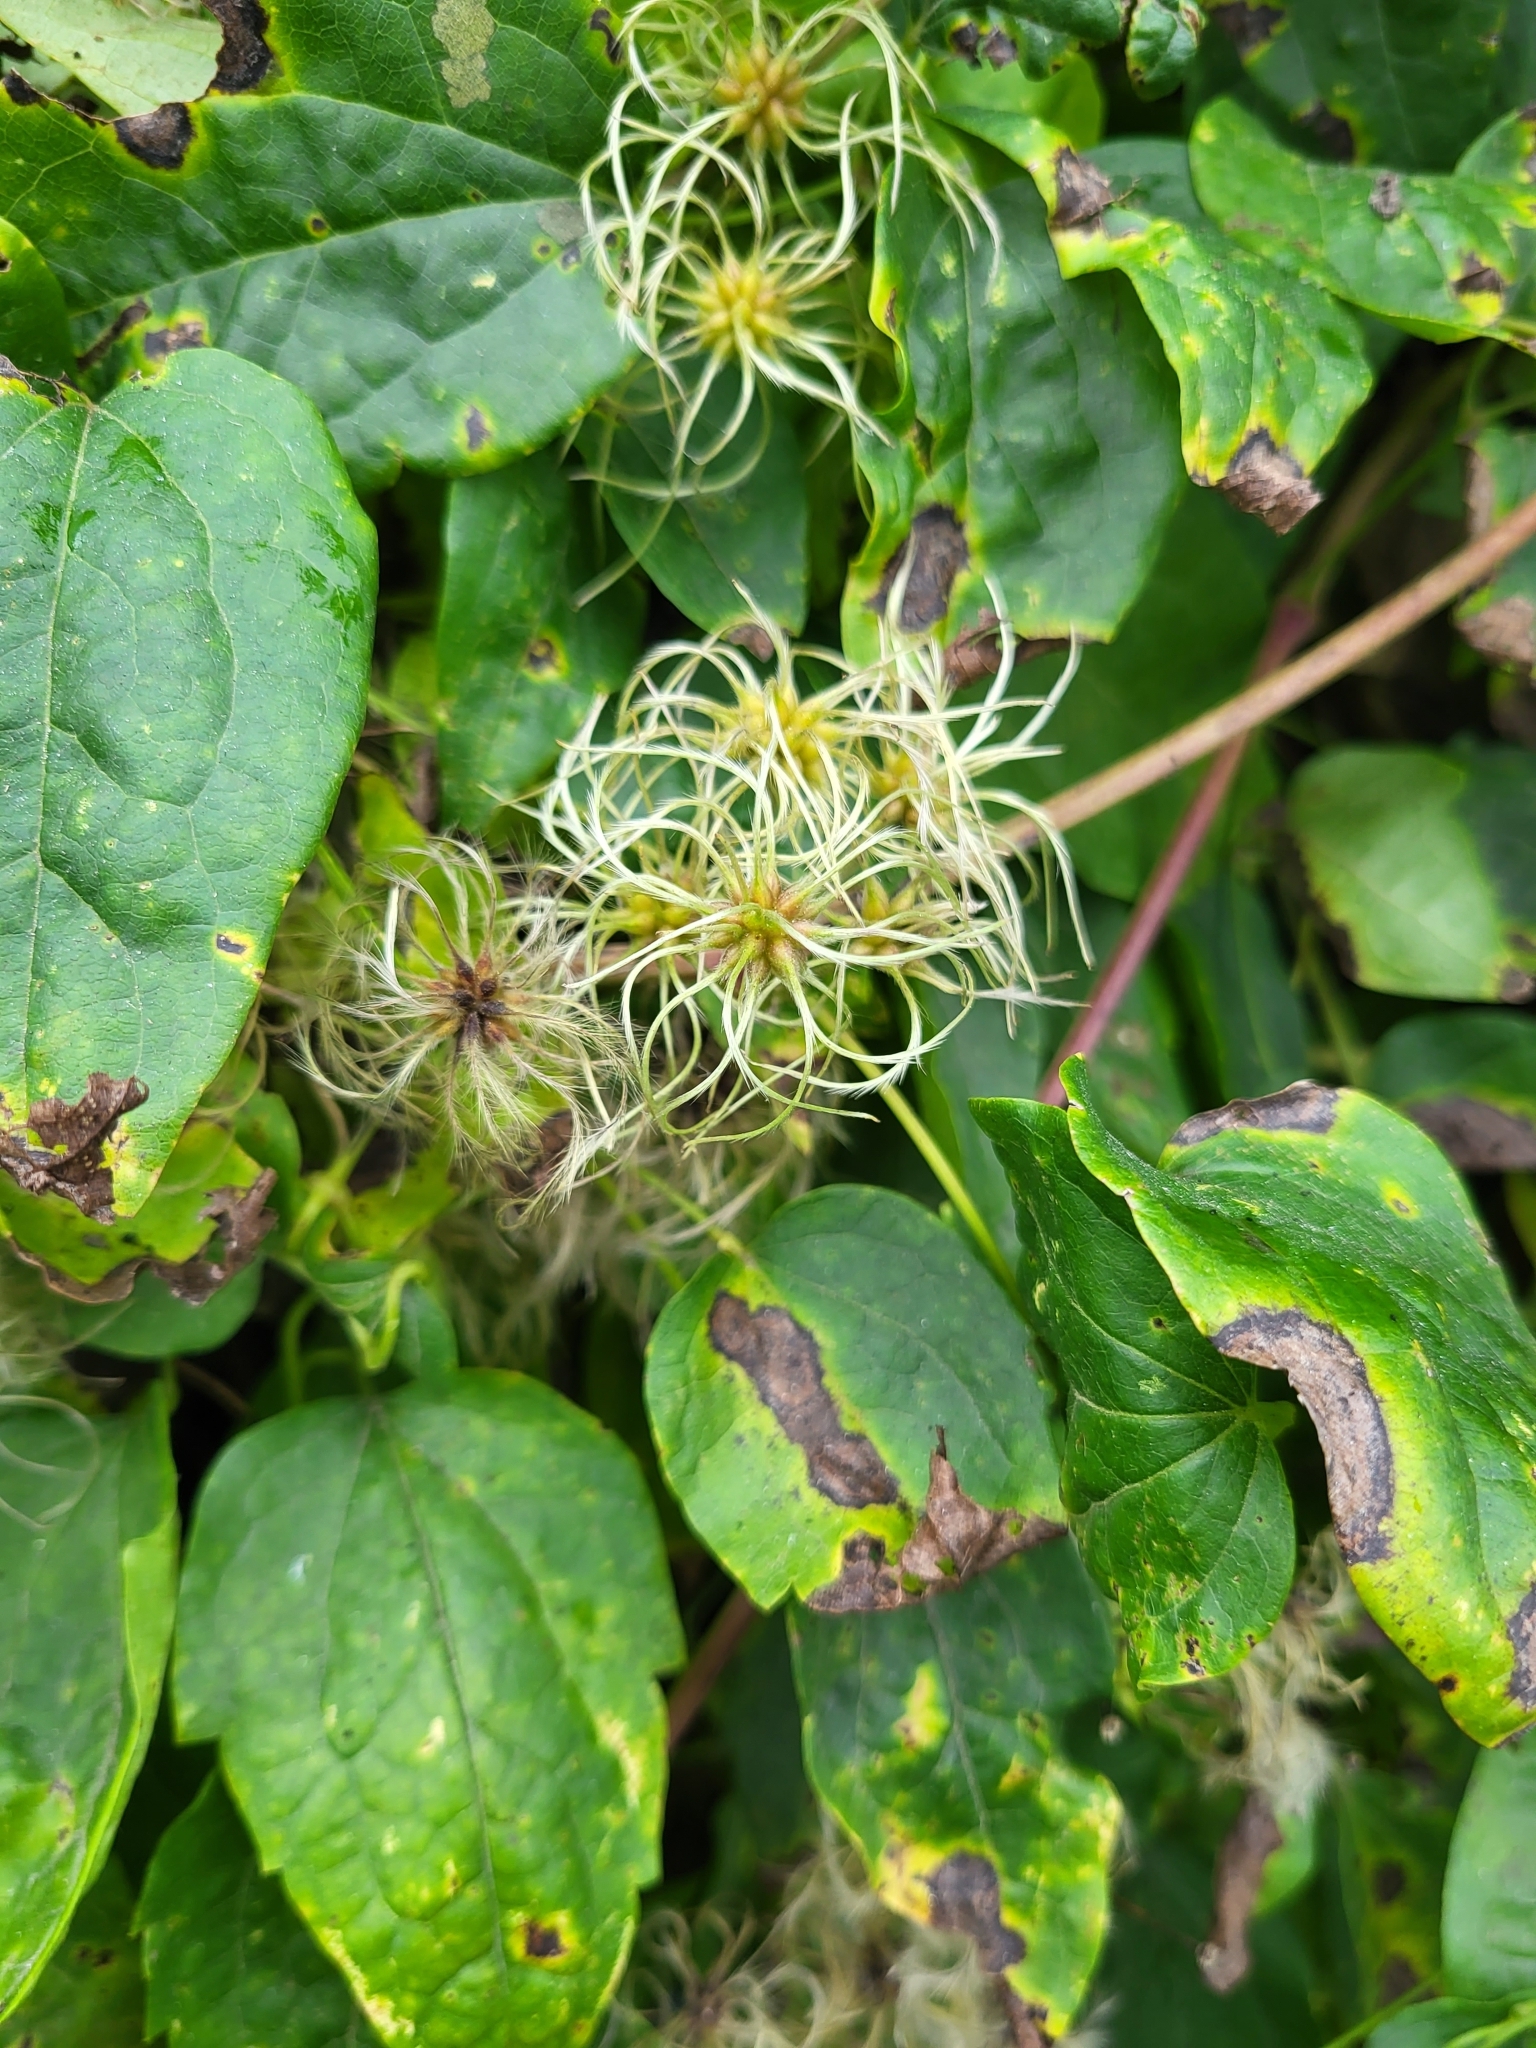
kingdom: Plantae
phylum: Tracheophyta
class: Magnoliopsida
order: Ranunculales
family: Ranunculaceae
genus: Clematis
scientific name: Clematis vitalba
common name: Evergreen clematis
